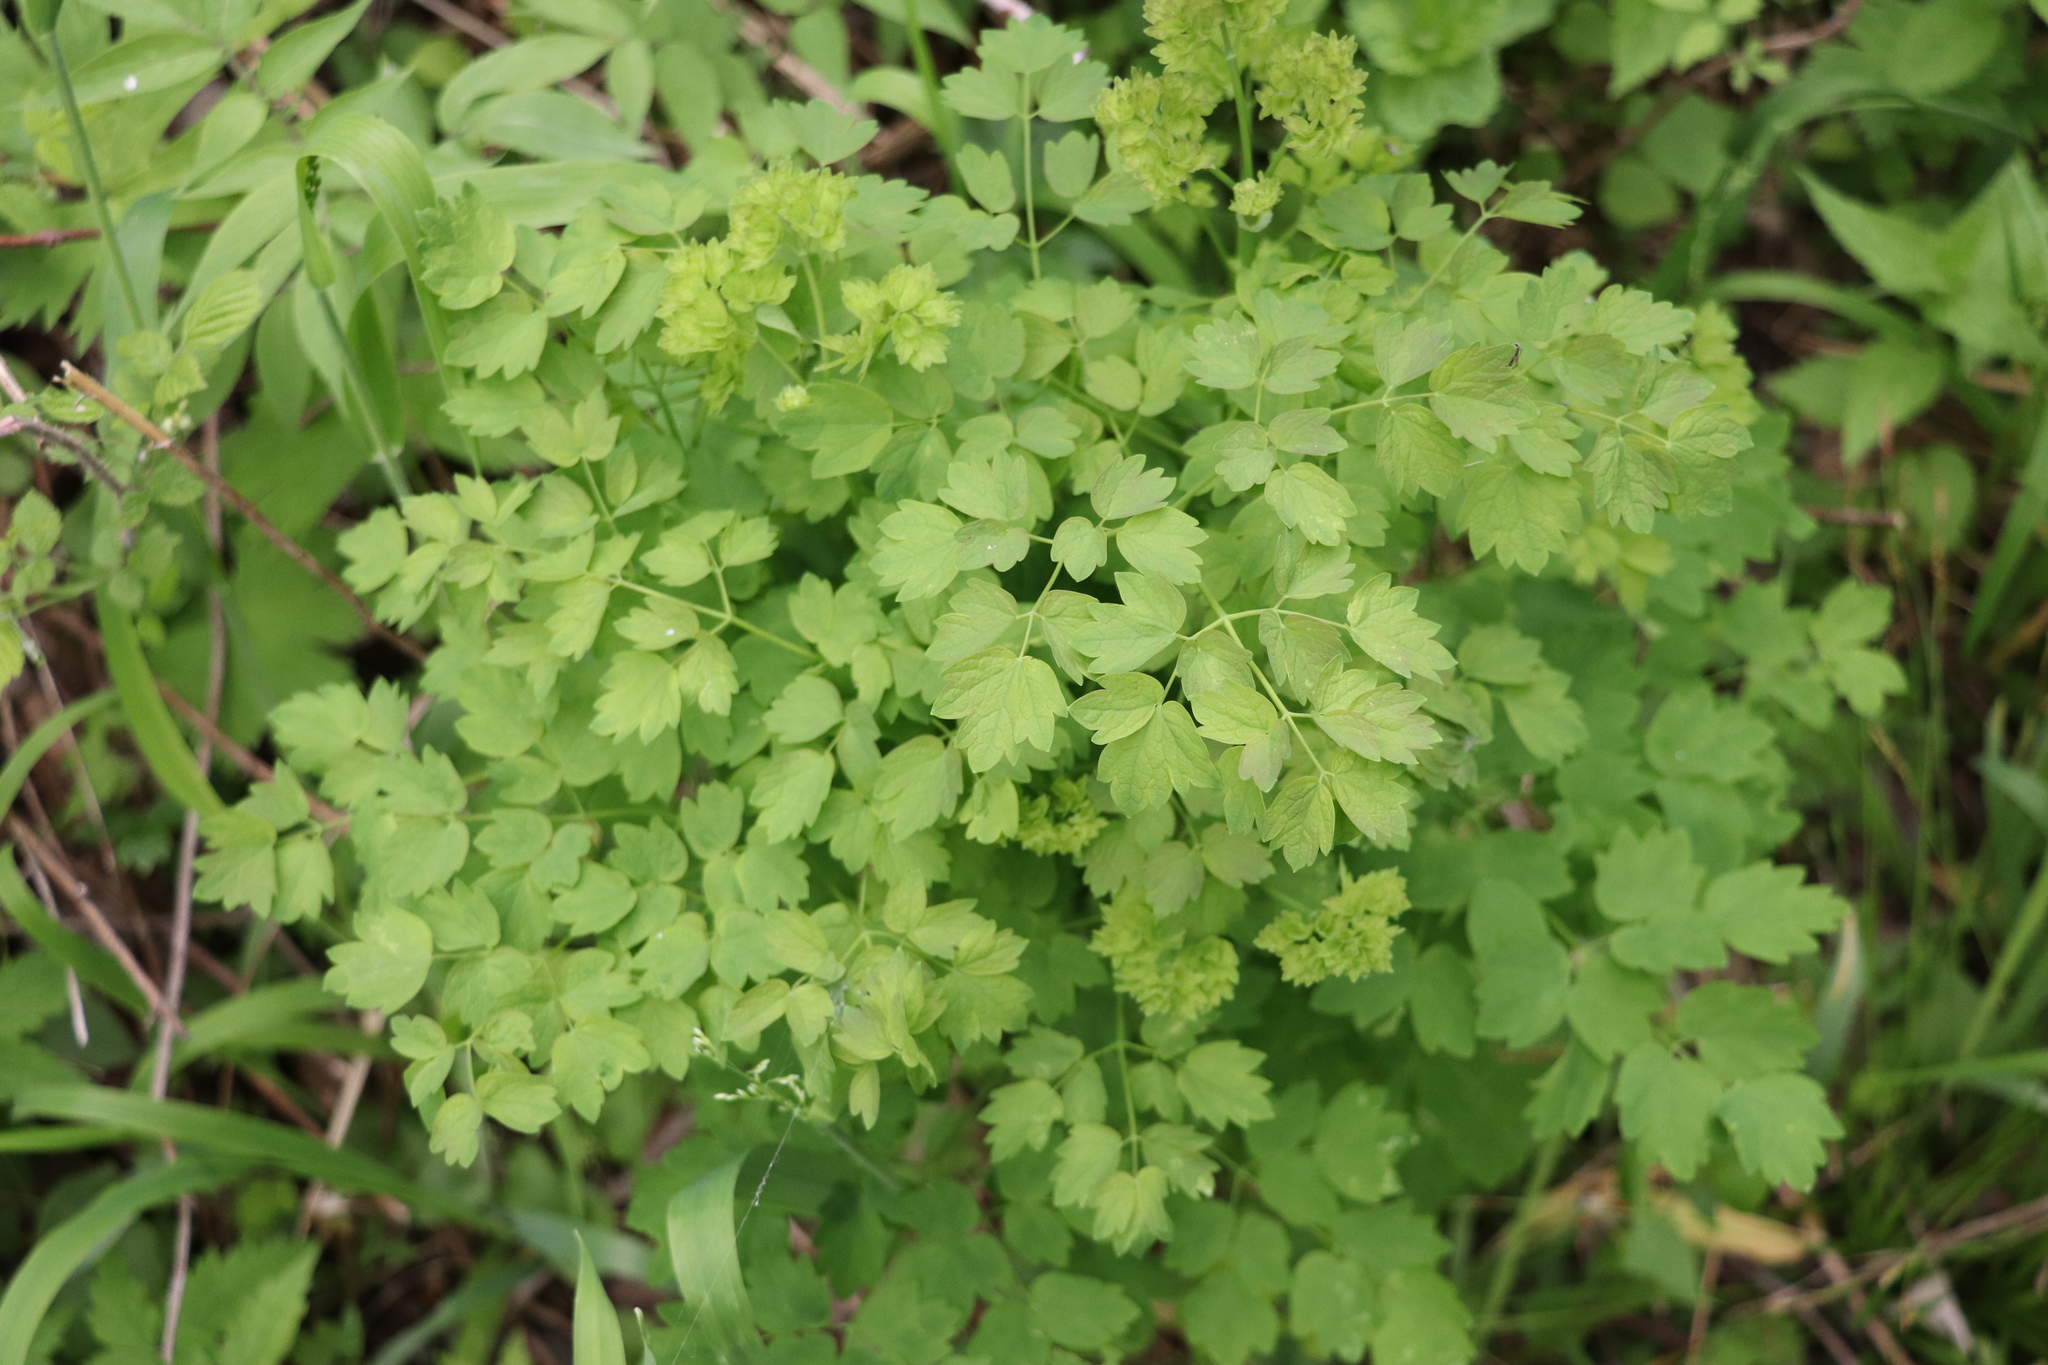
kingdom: Plantae
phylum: Tracheophyta
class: Magnoliopsida
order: Ranunculales
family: Ranunculaceae
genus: Thalictrum
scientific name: Thalictrum minus
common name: Lesser meadow-rue
